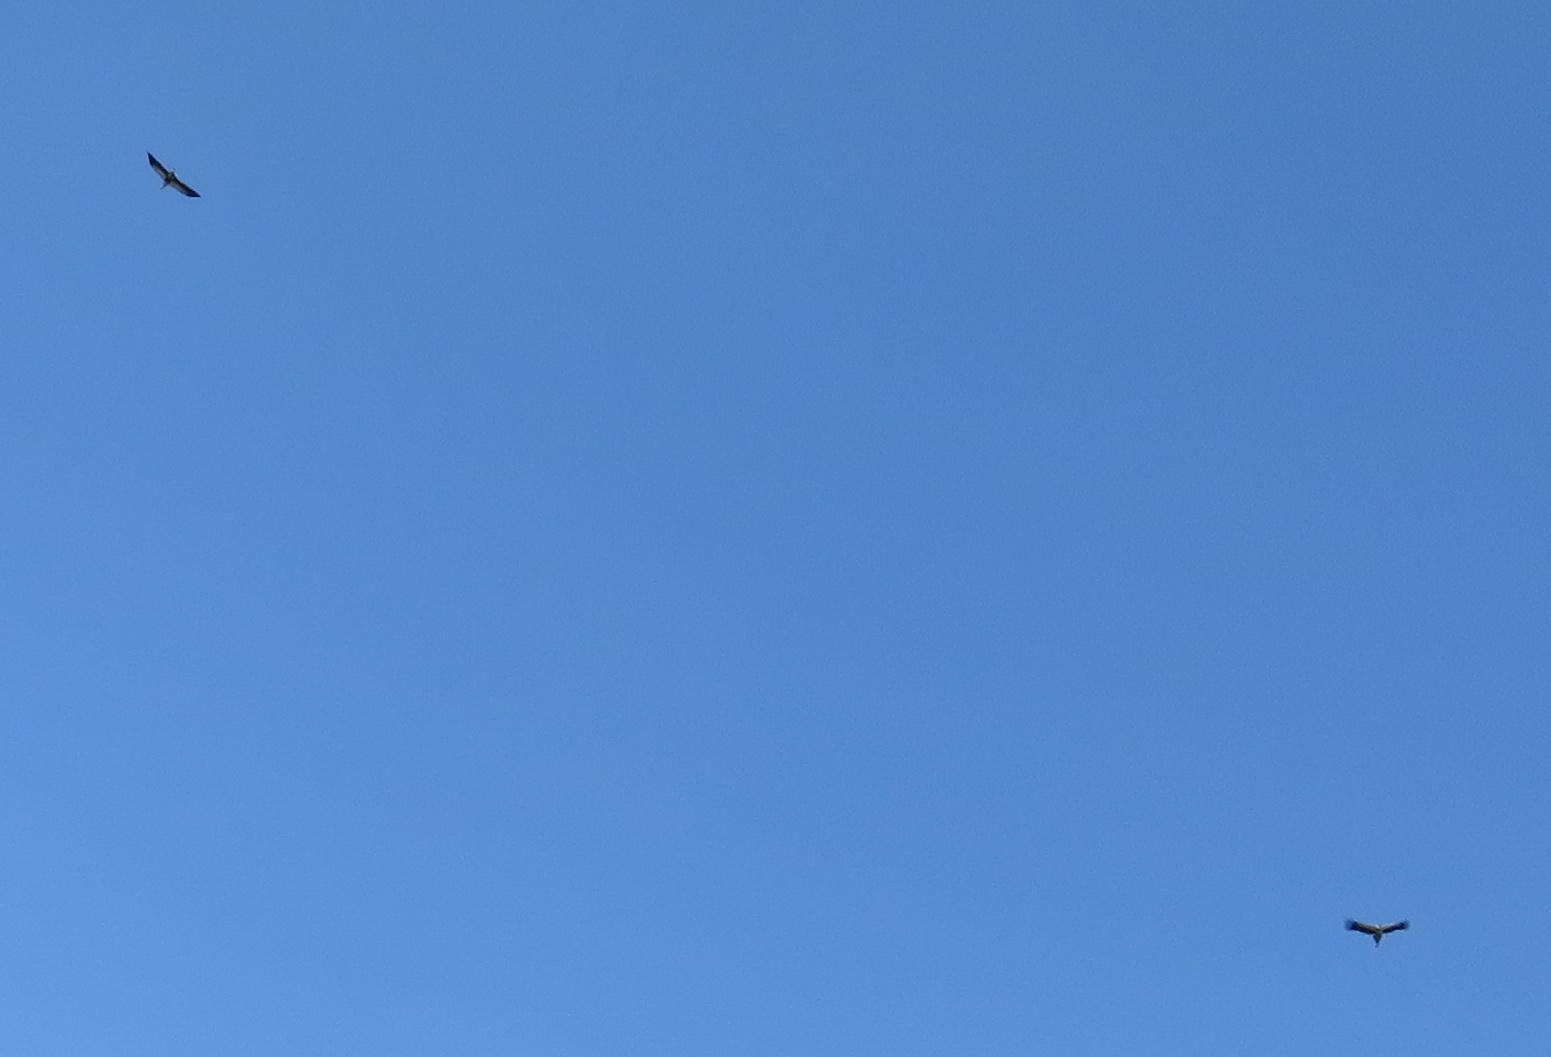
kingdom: Animalia
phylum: Chordata
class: Aves
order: Accipitriformes
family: Sagittariidae
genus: Sagittarius
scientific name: Sagittarius serpentarius
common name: Secretarybird
